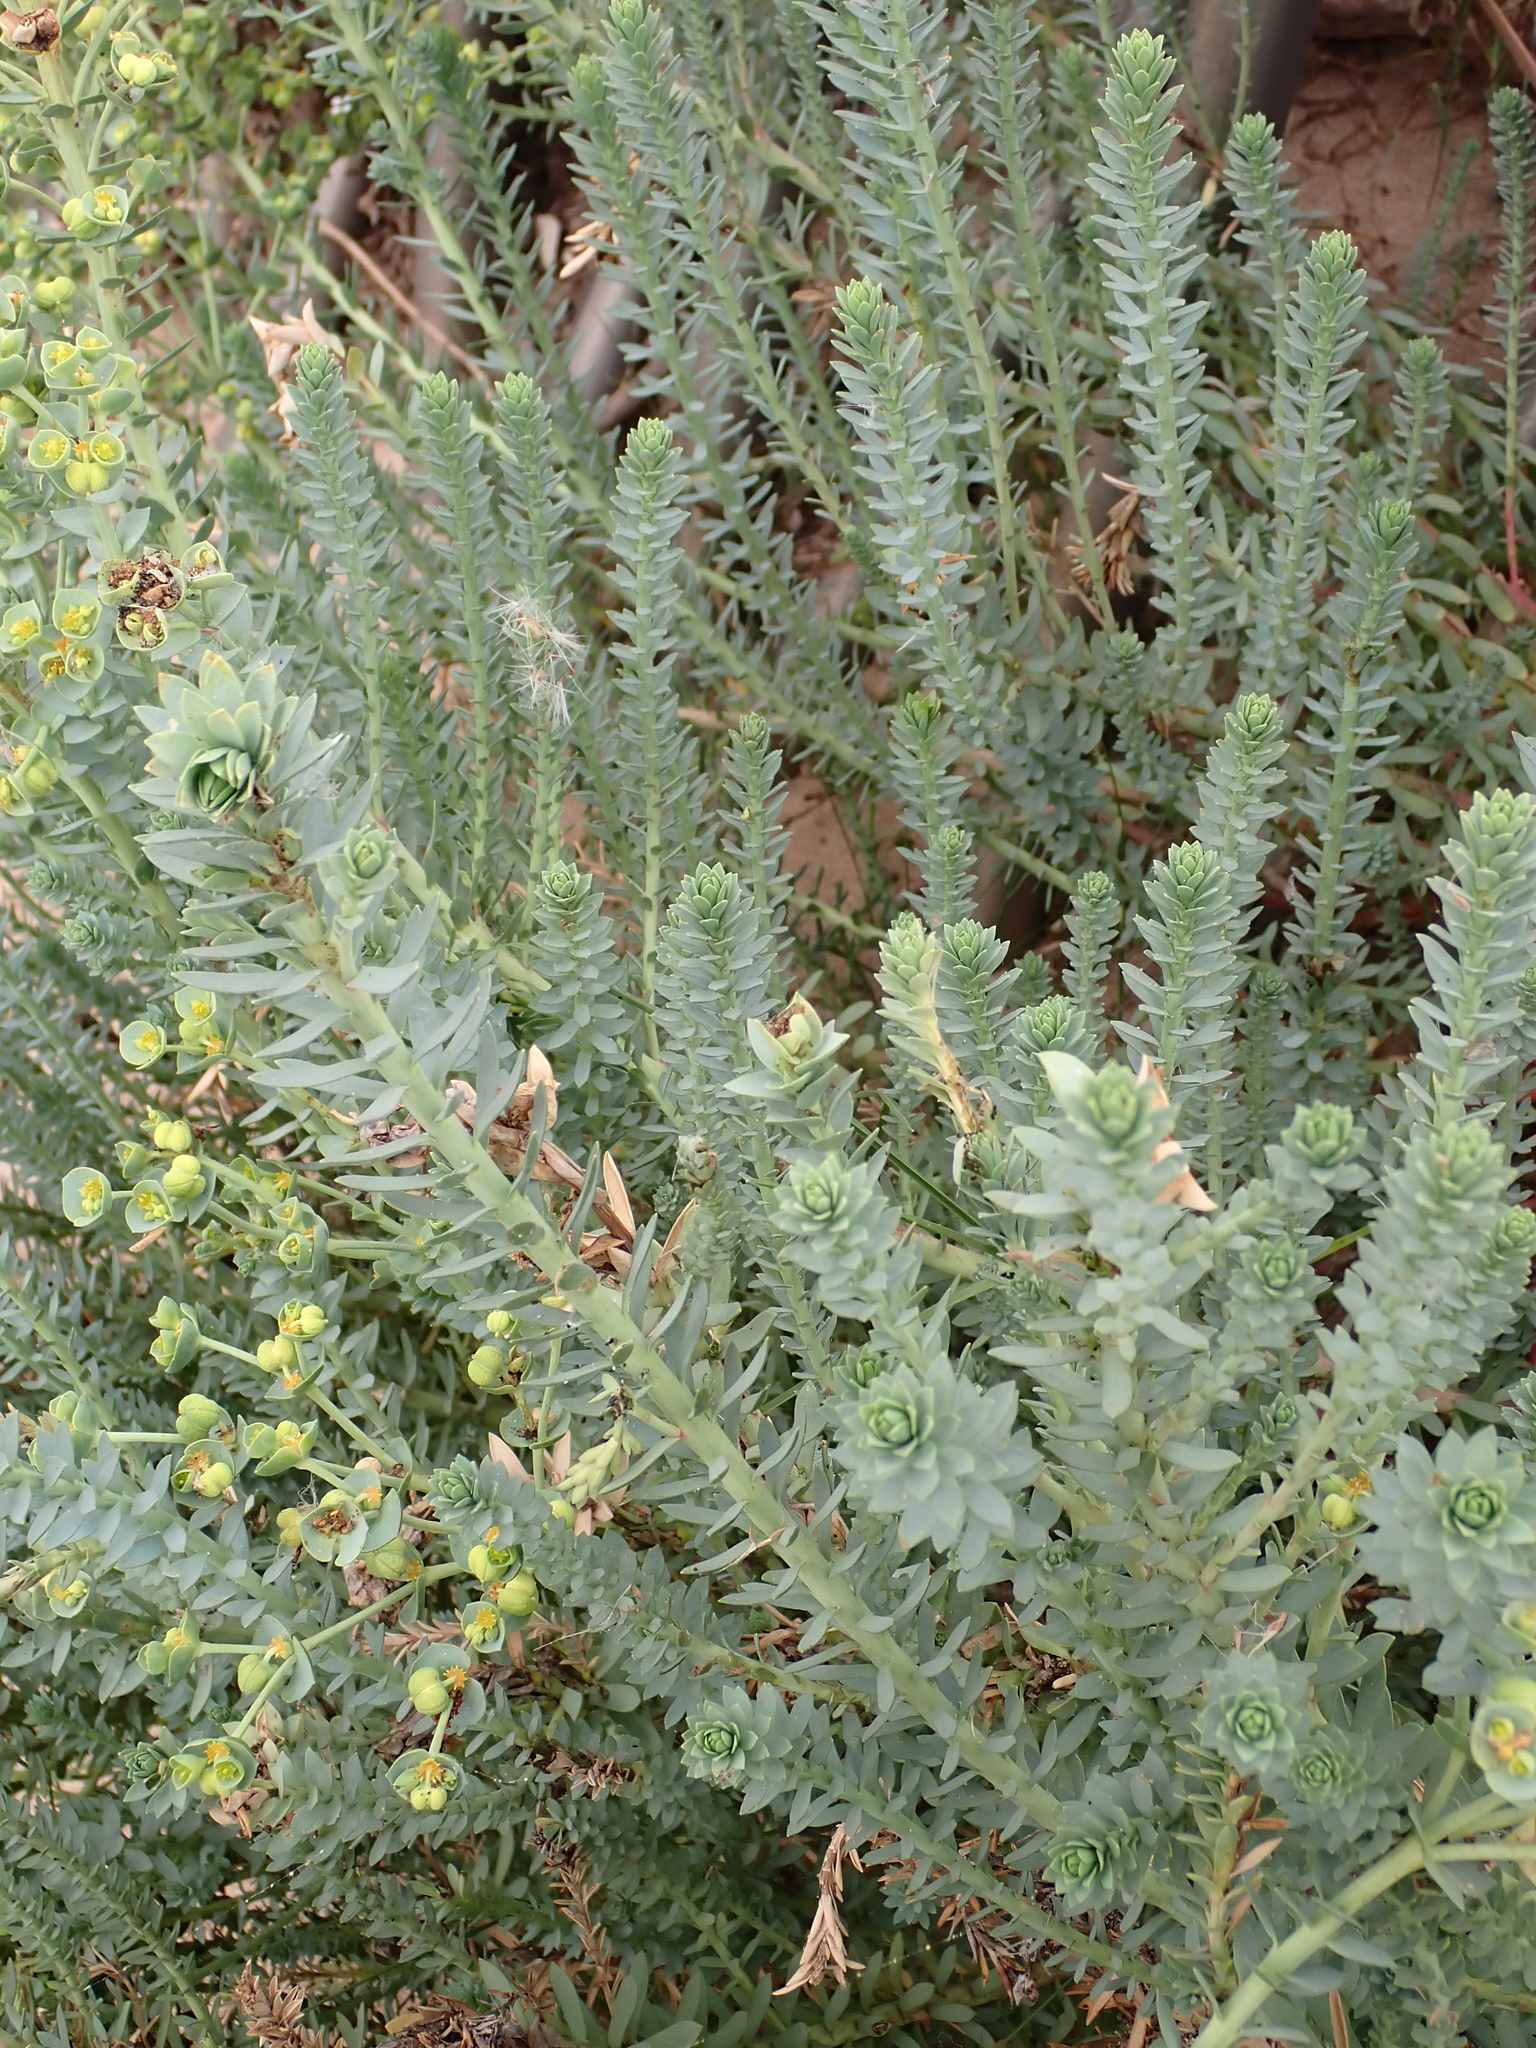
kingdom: Plantae
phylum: Tracheophyta
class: Magnoliopsida
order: Malpighiales
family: Euphorbiaceae
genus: Euphorbia
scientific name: Euphorbia paralias
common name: Sea spurge
